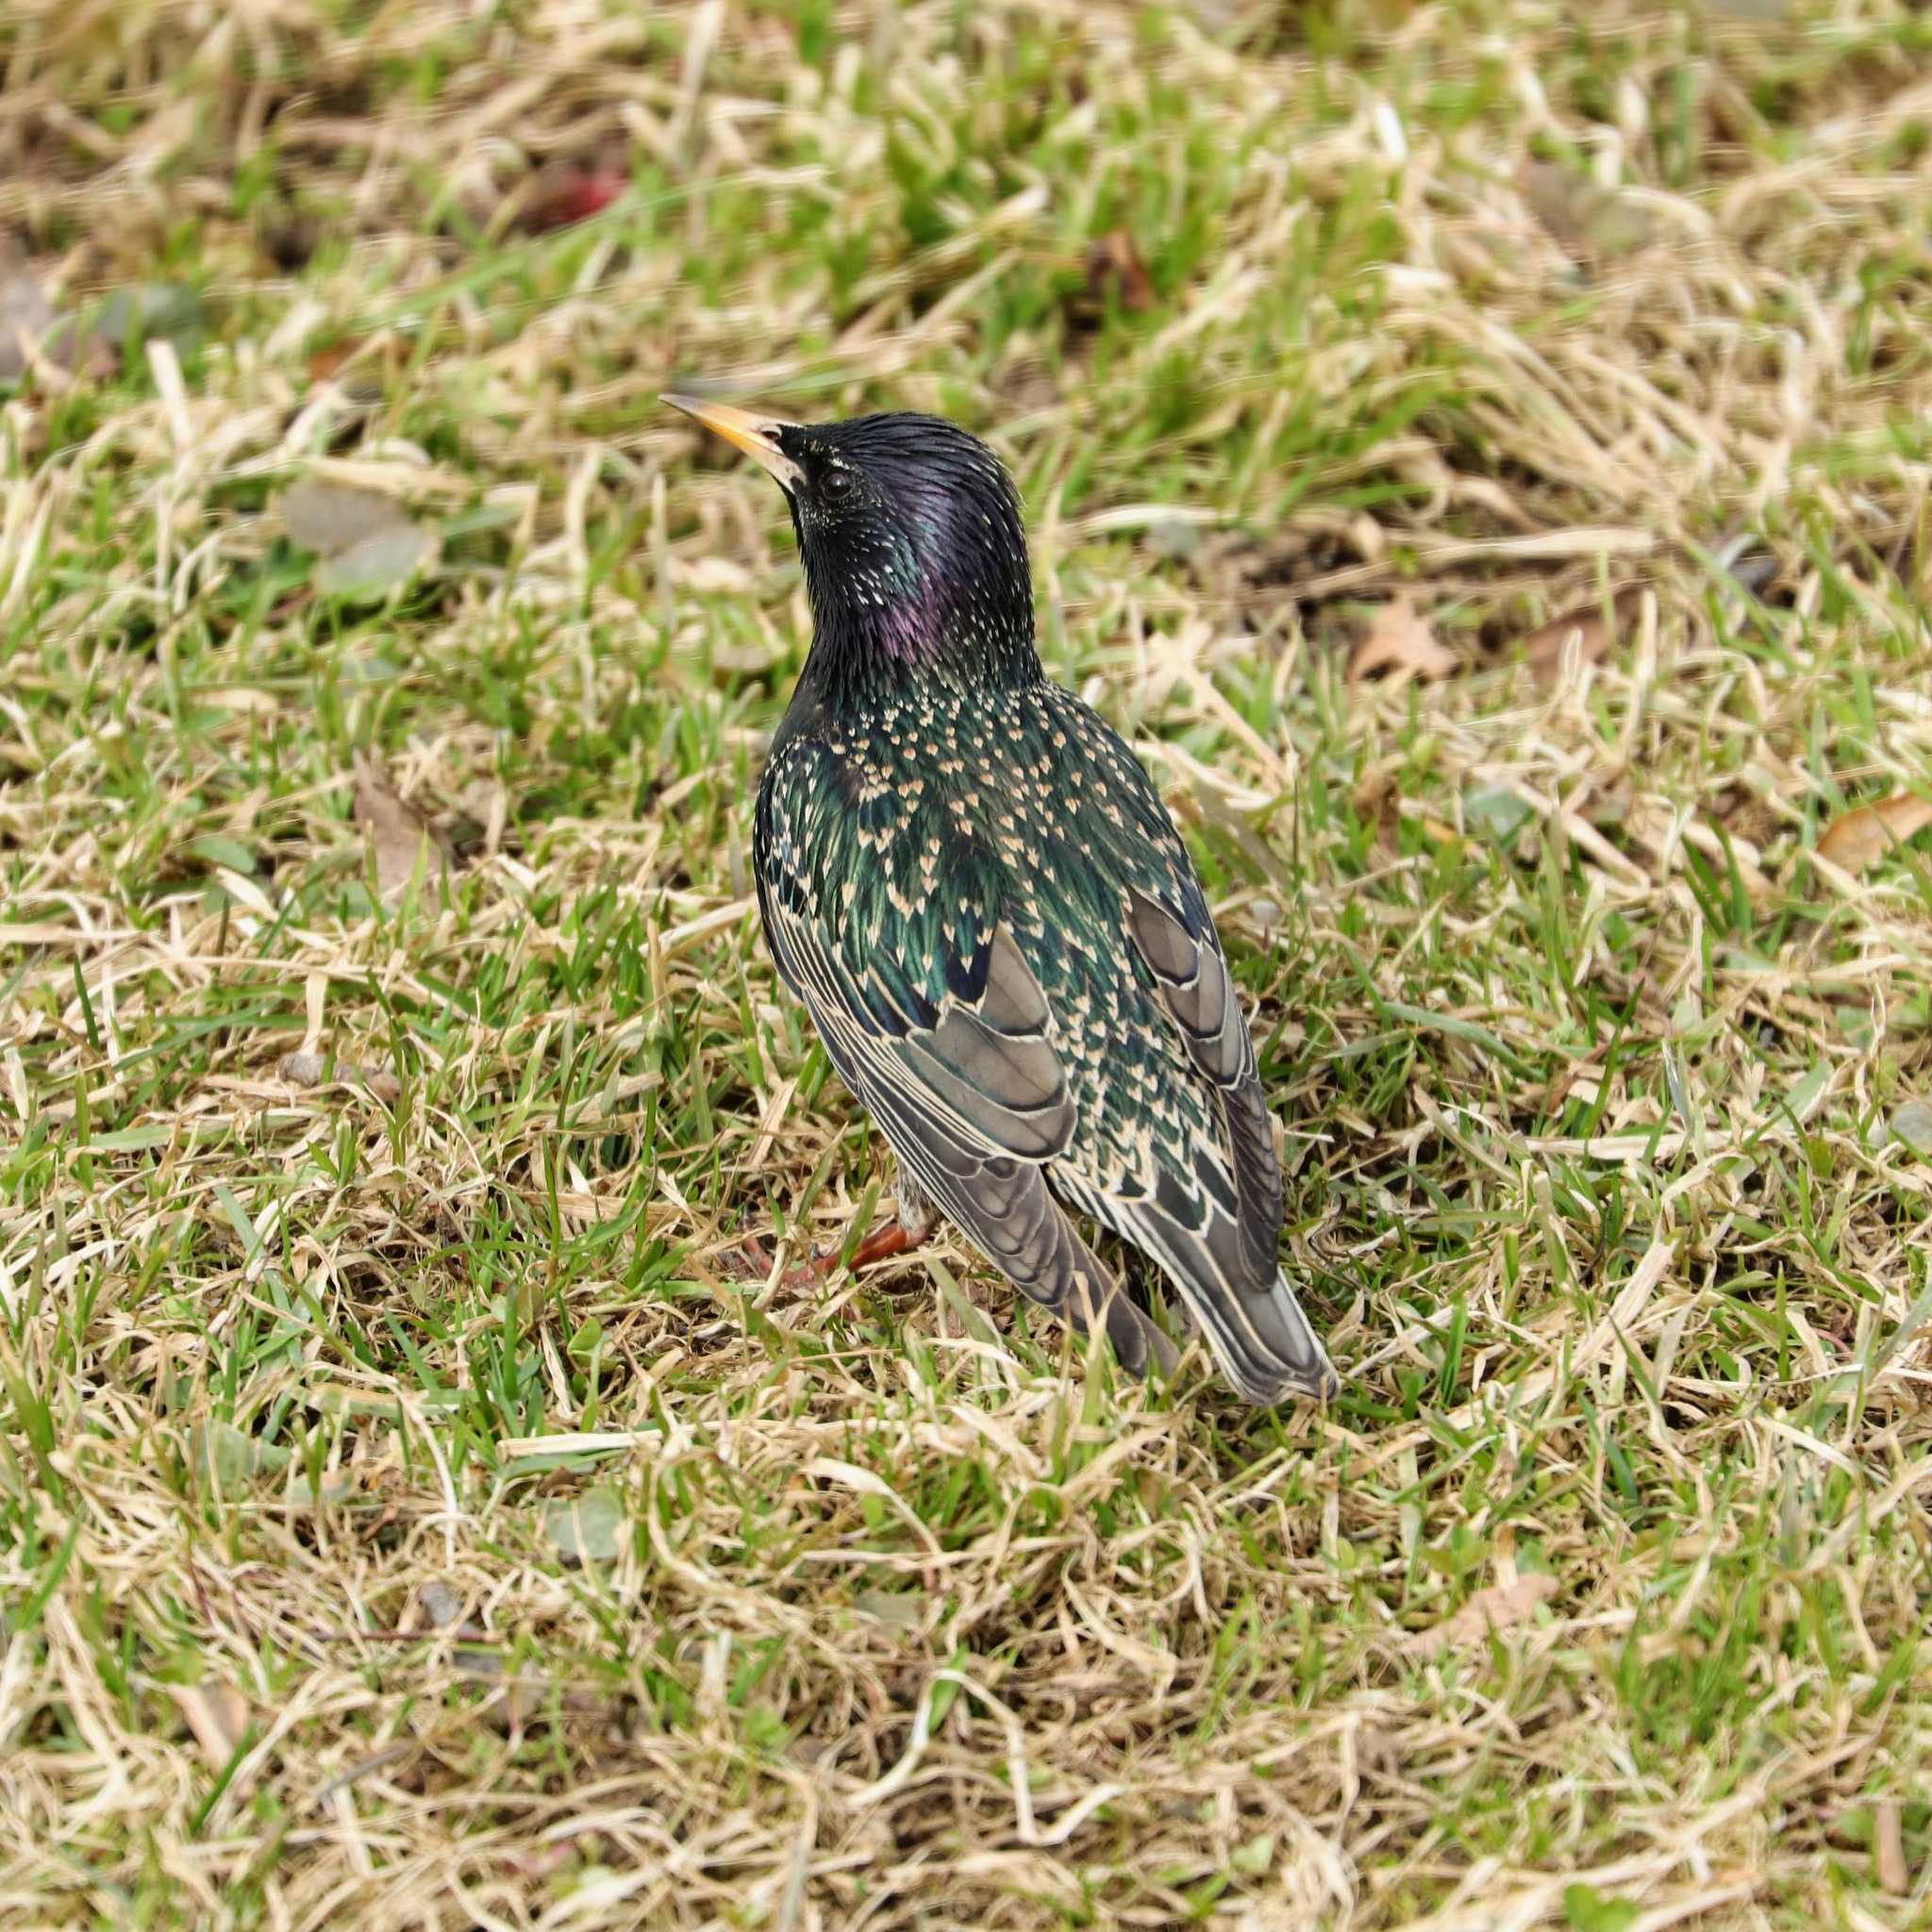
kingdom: Animalia
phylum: Chordata
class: Aves
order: Passeriformes
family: Sturnidae
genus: Sturnus
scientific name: Sturnus vulgaris
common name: Common starling
